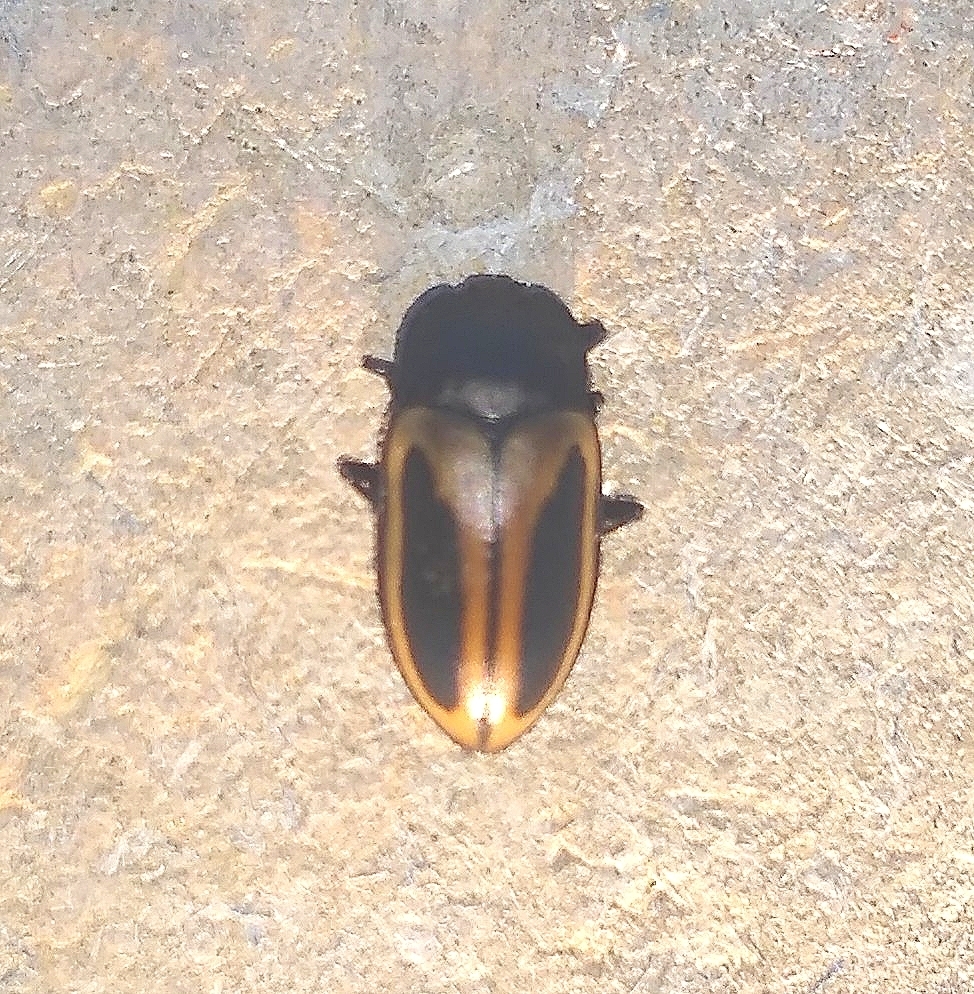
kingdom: Animalia
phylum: Arthropoda
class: Insecta
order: Coleoptera
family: Erotylidae
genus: Iphiclus
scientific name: Iphiclus
